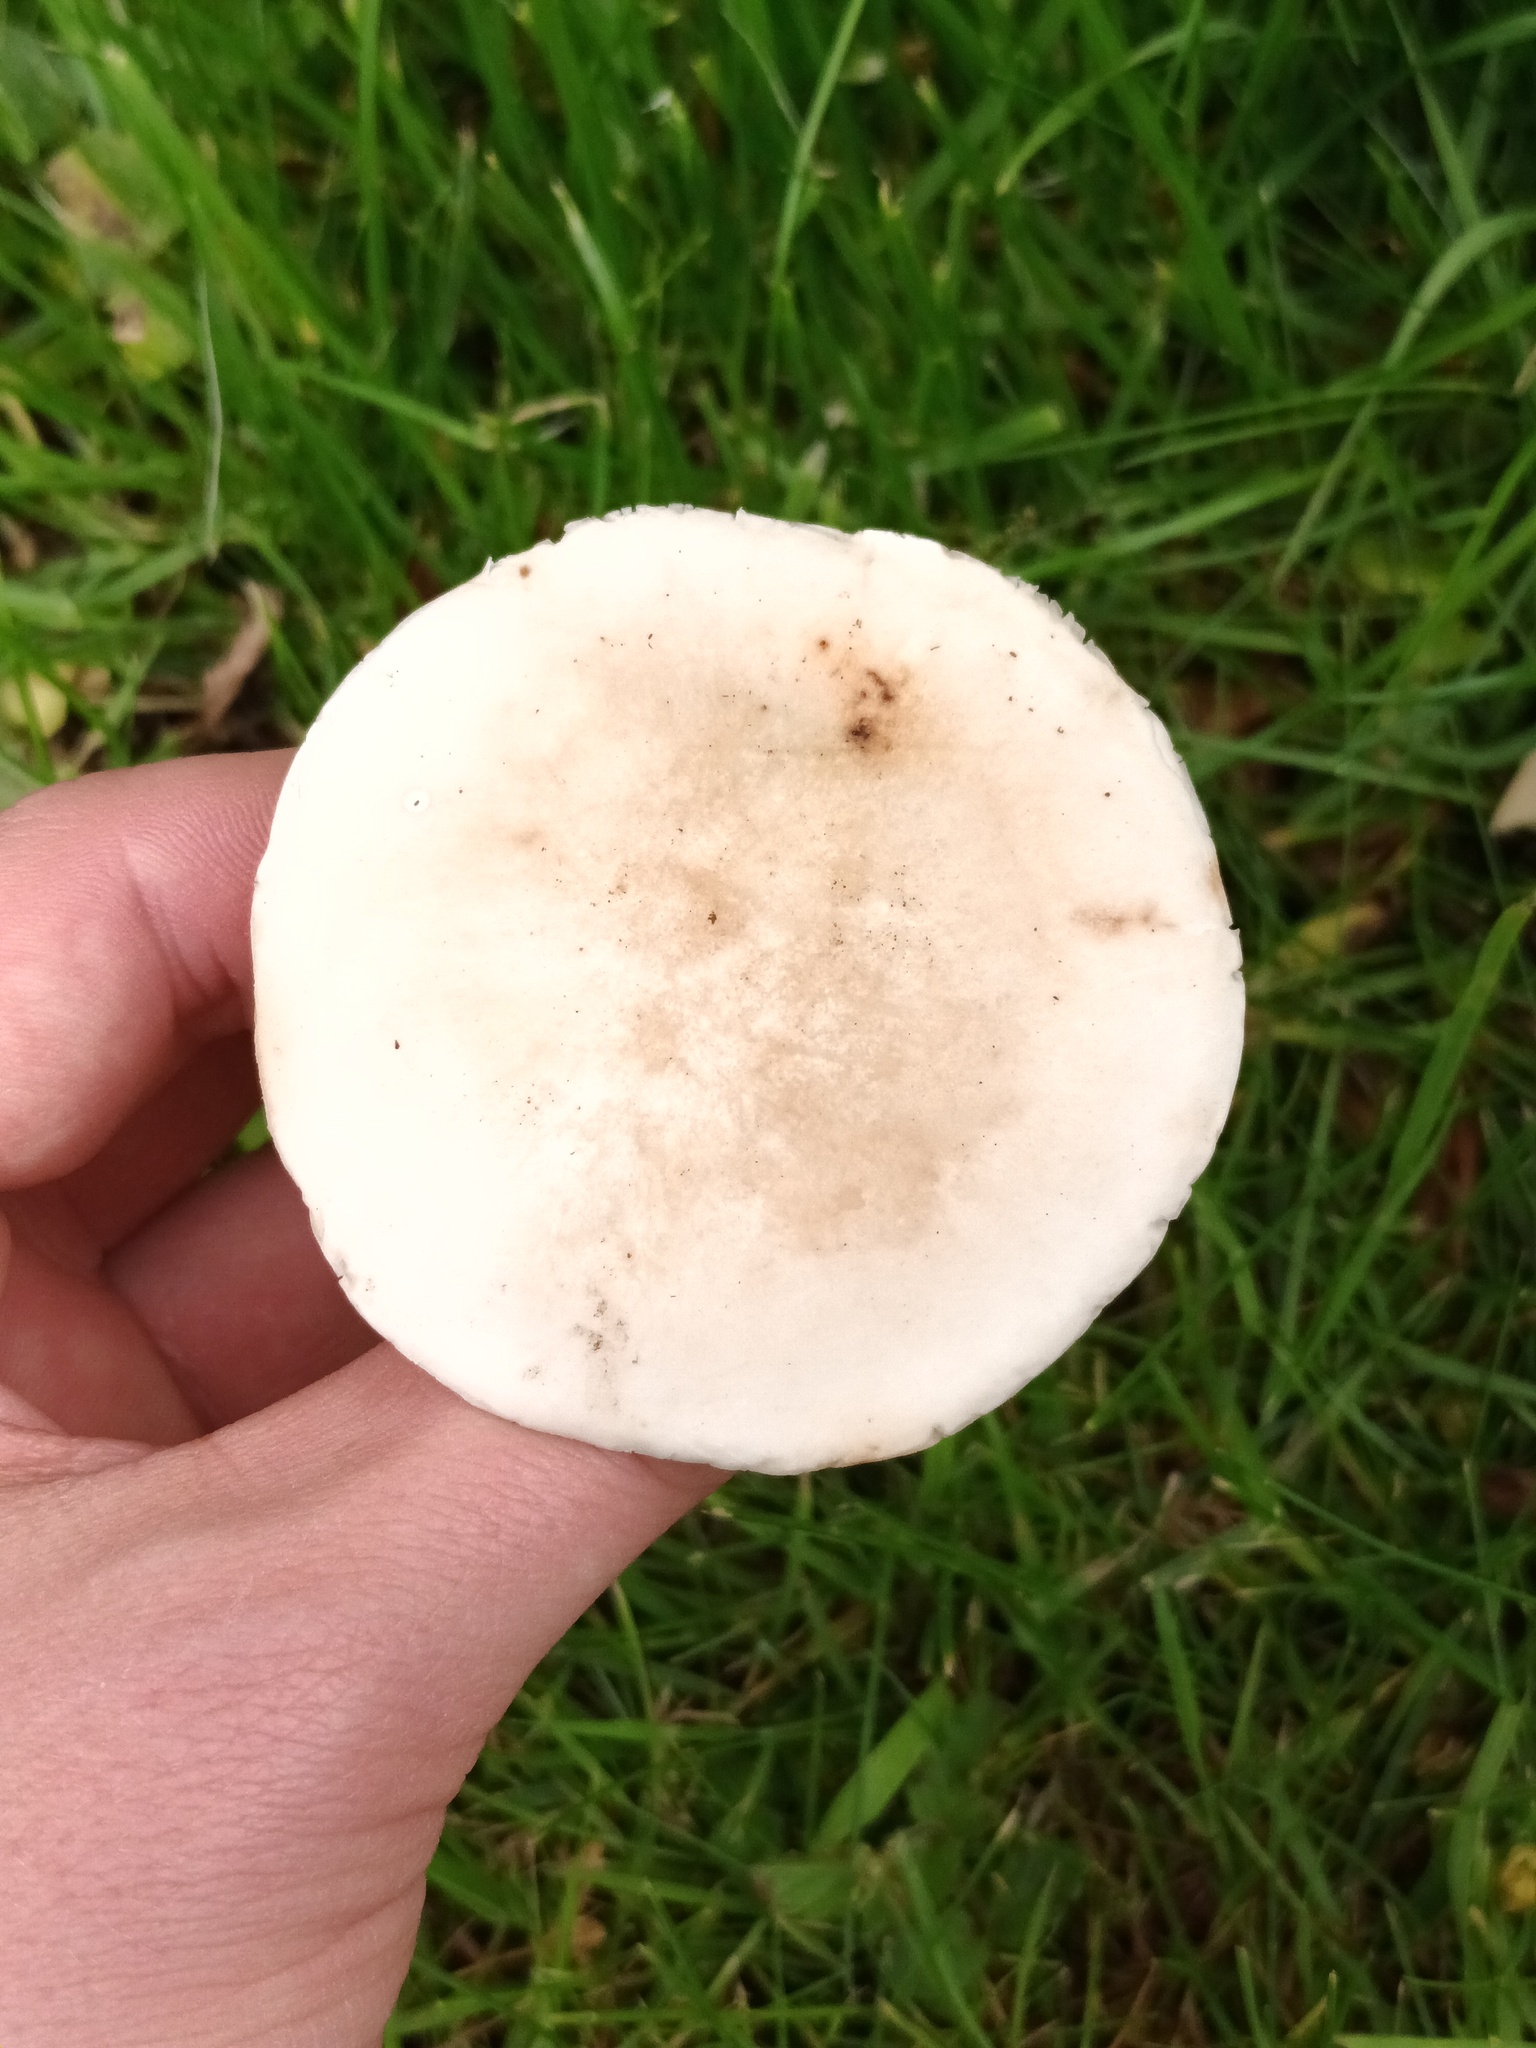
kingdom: Fungi
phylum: Basidiomycota
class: Agaricomycetes
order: Agaricales
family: Lyophyllaceae
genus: Calocybe
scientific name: Calocybe gambosa
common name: St. george's mushroom
